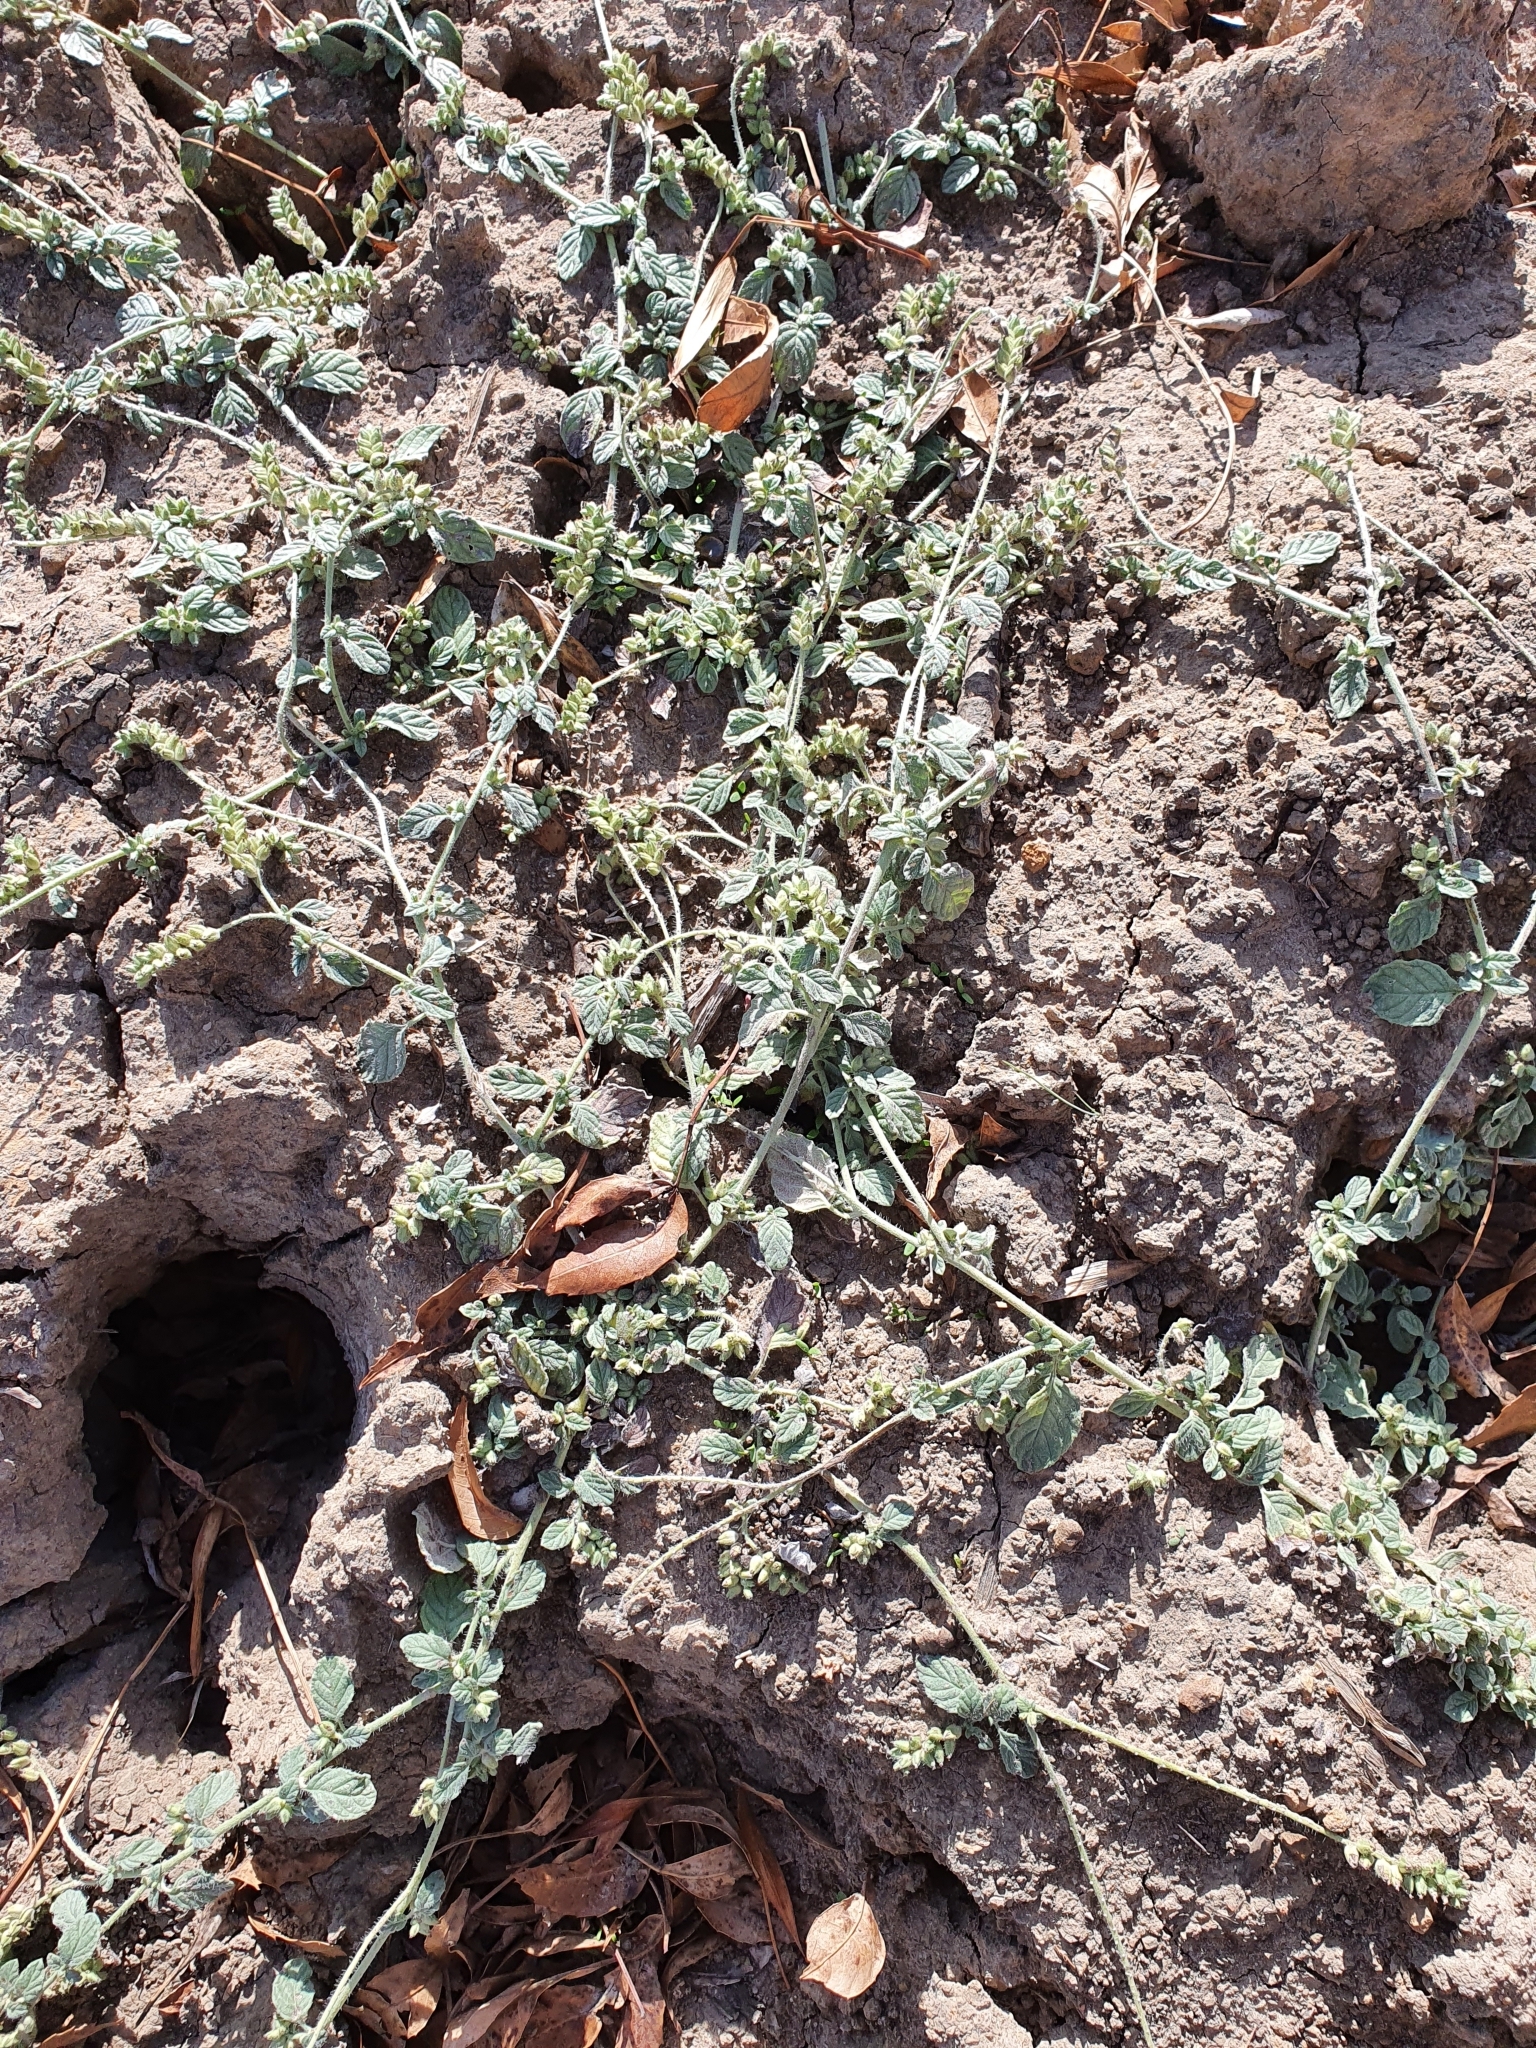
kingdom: Plantae
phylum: Tracheophyta
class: Magnoliopsida
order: Boraginales
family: Heliotropiaceae
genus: Heliotropium
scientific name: Heliotropium supinum
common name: Dwarf heliotrope
